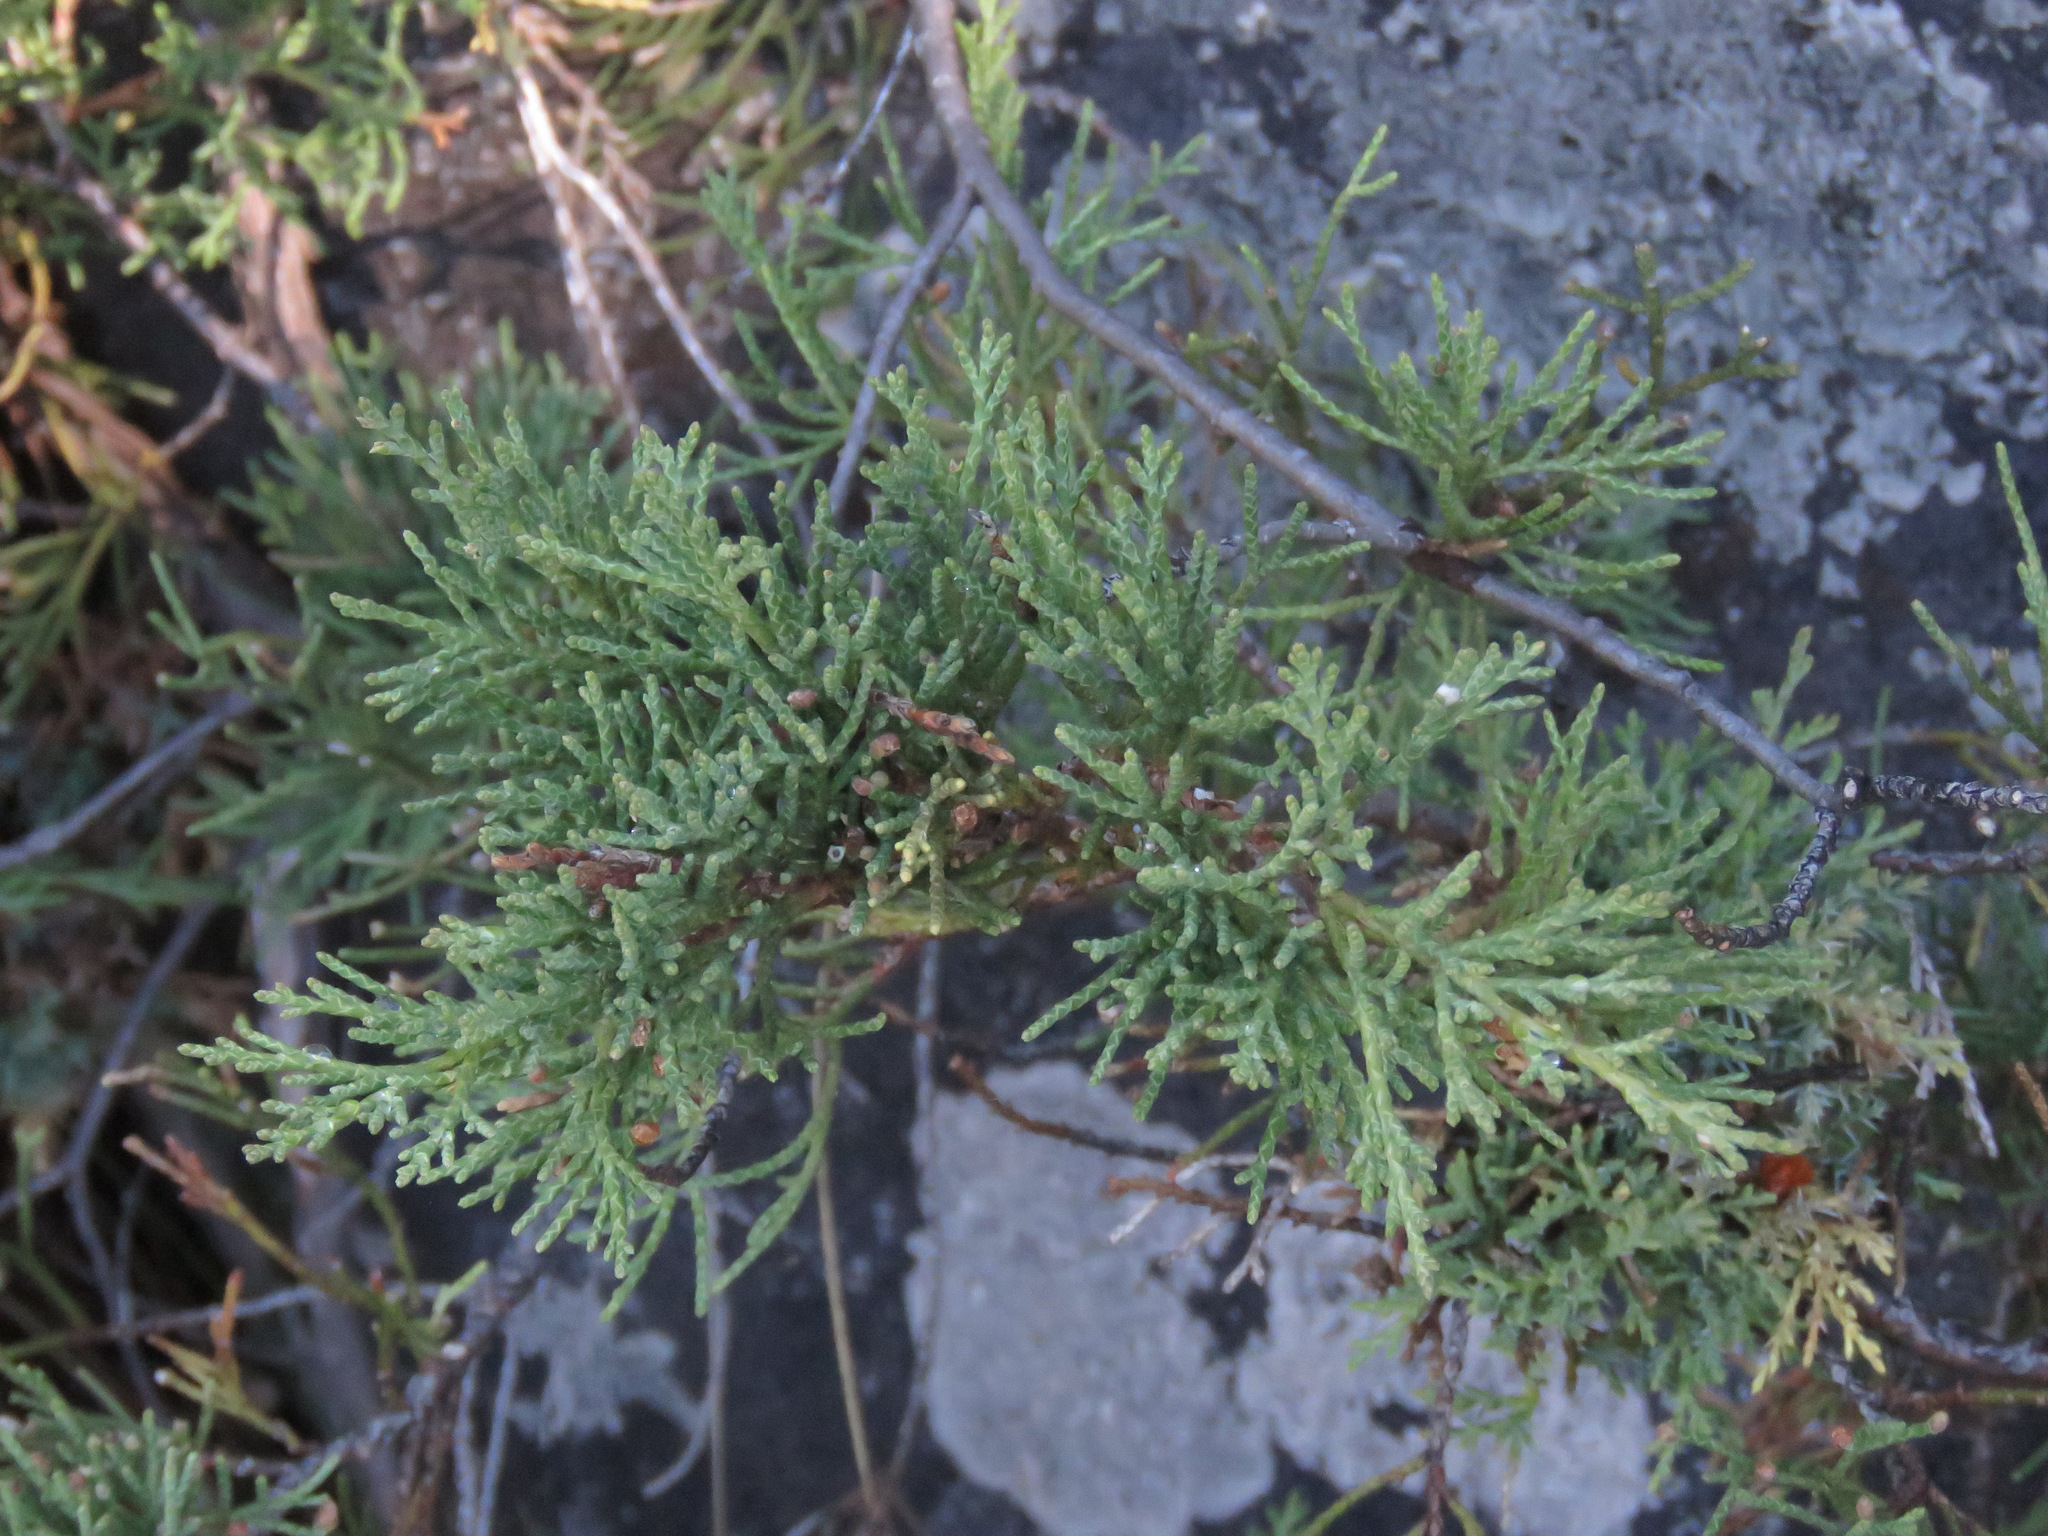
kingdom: Plantae
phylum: Tracheophyta
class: Pinopsida
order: Pinales
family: Cupressaceae
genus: Juniperus
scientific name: Juniperus scopulorum
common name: Rocky mountain juniper
